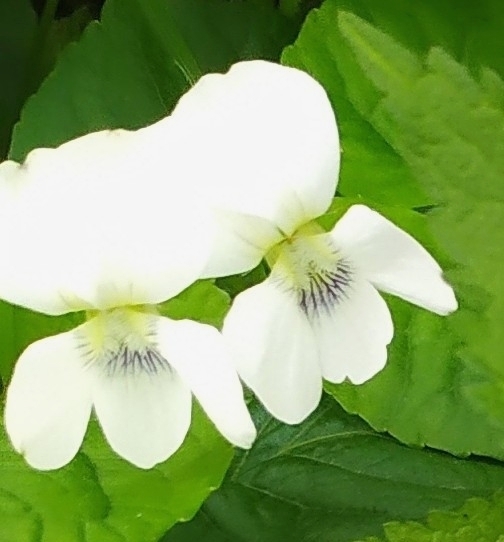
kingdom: Plantae
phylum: Tracheophyta
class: Magnoliopsida
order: Malpighiales
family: Violaceae
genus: Viola
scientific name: Viola sororia
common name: Dooryard violet
